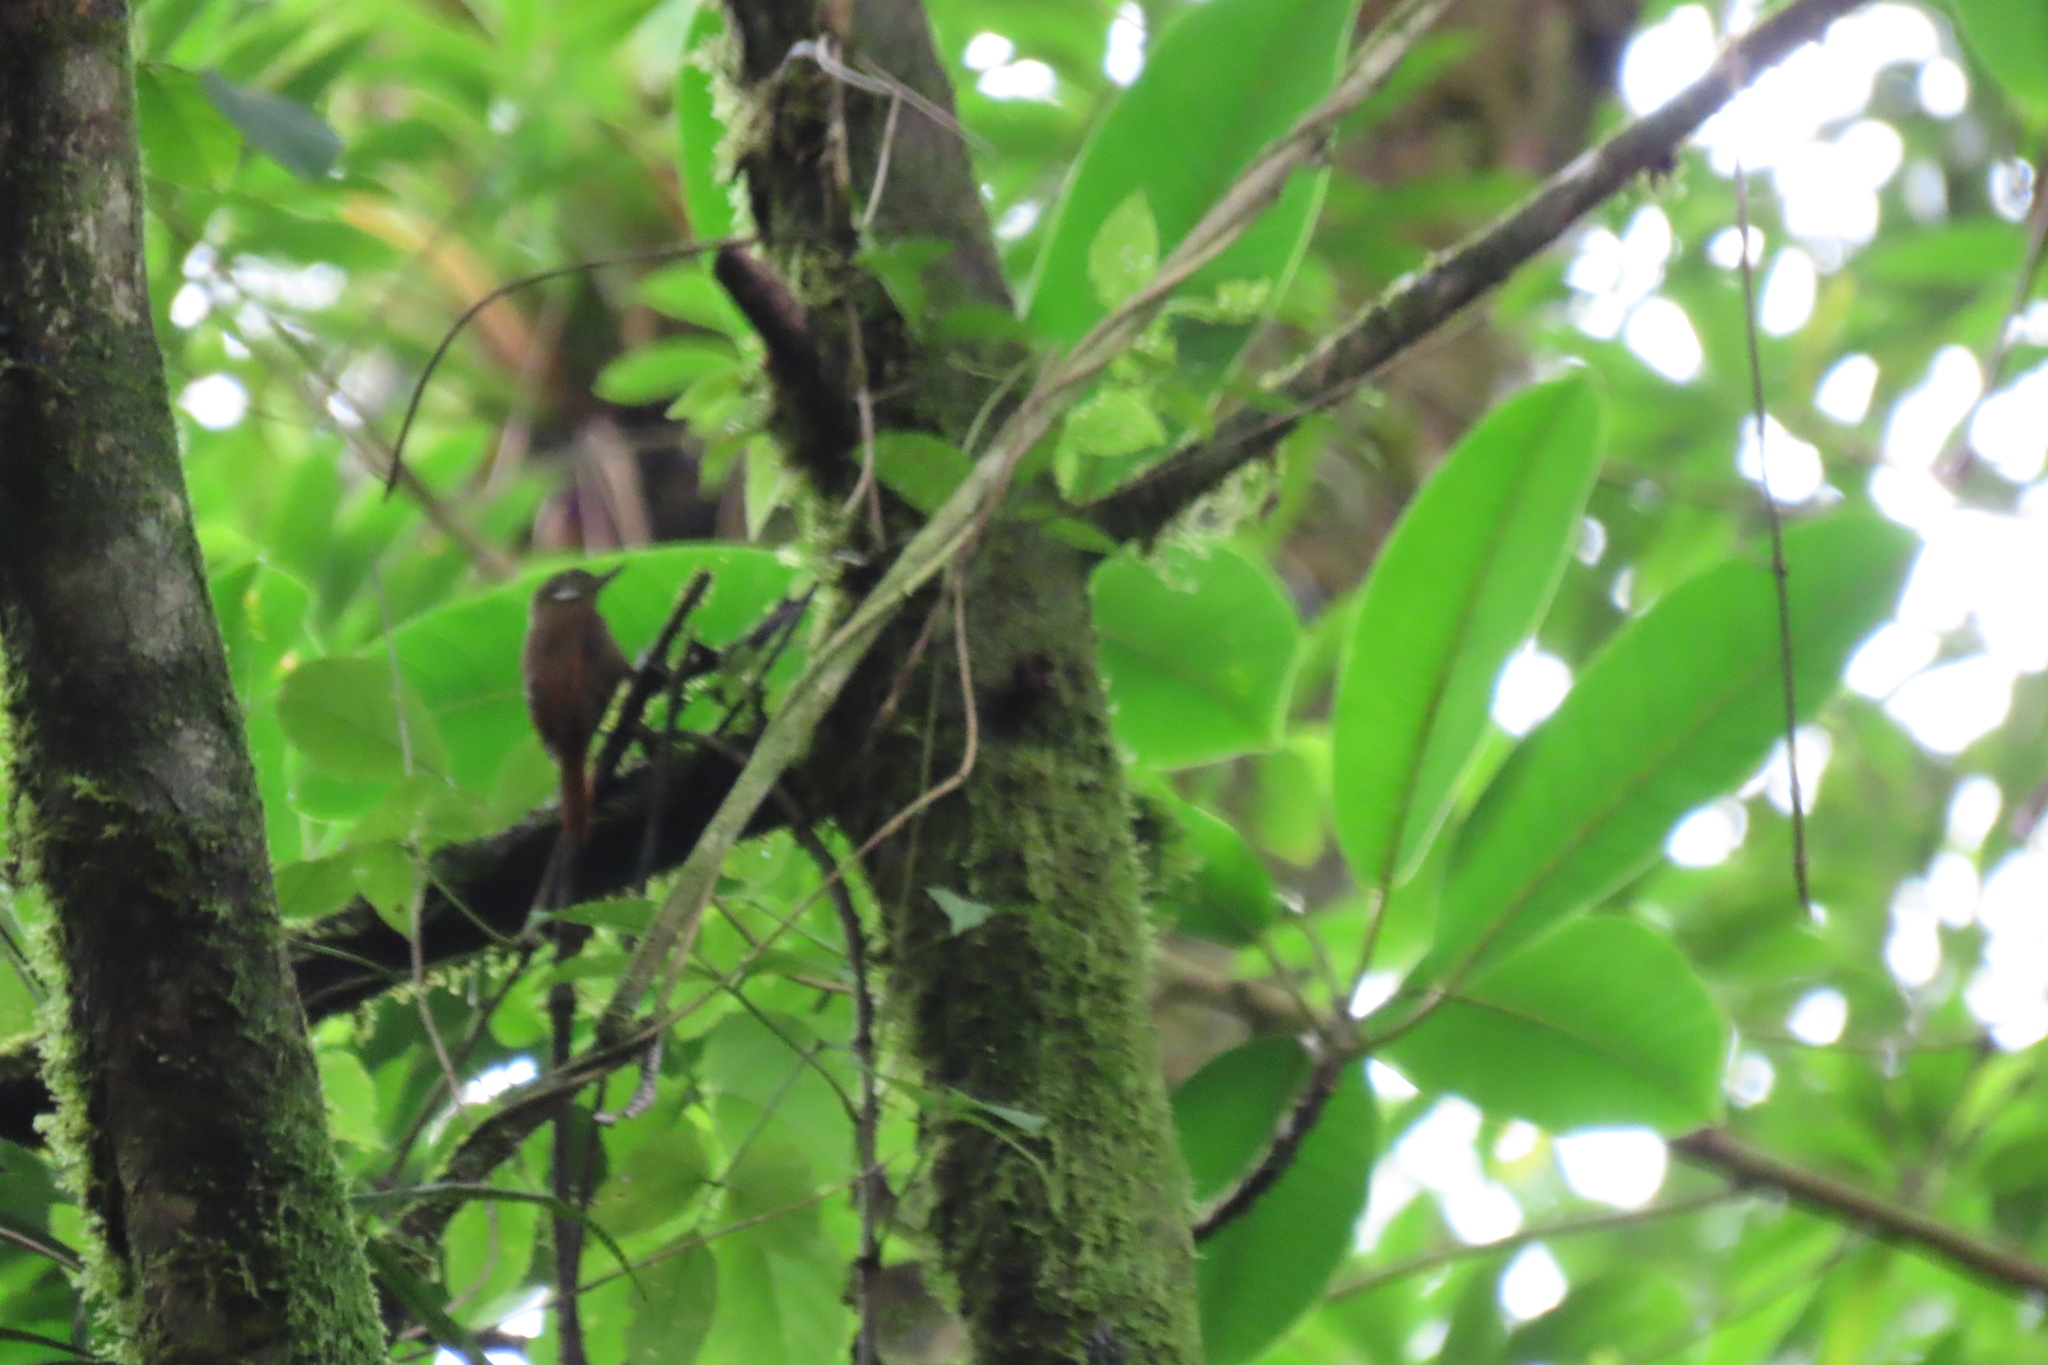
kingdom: Animalia
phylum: Chordata
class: Aves
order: Passeriformes
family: Furnariidae
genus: Xenops
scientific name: Xenops minutus
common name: Plain xenops
